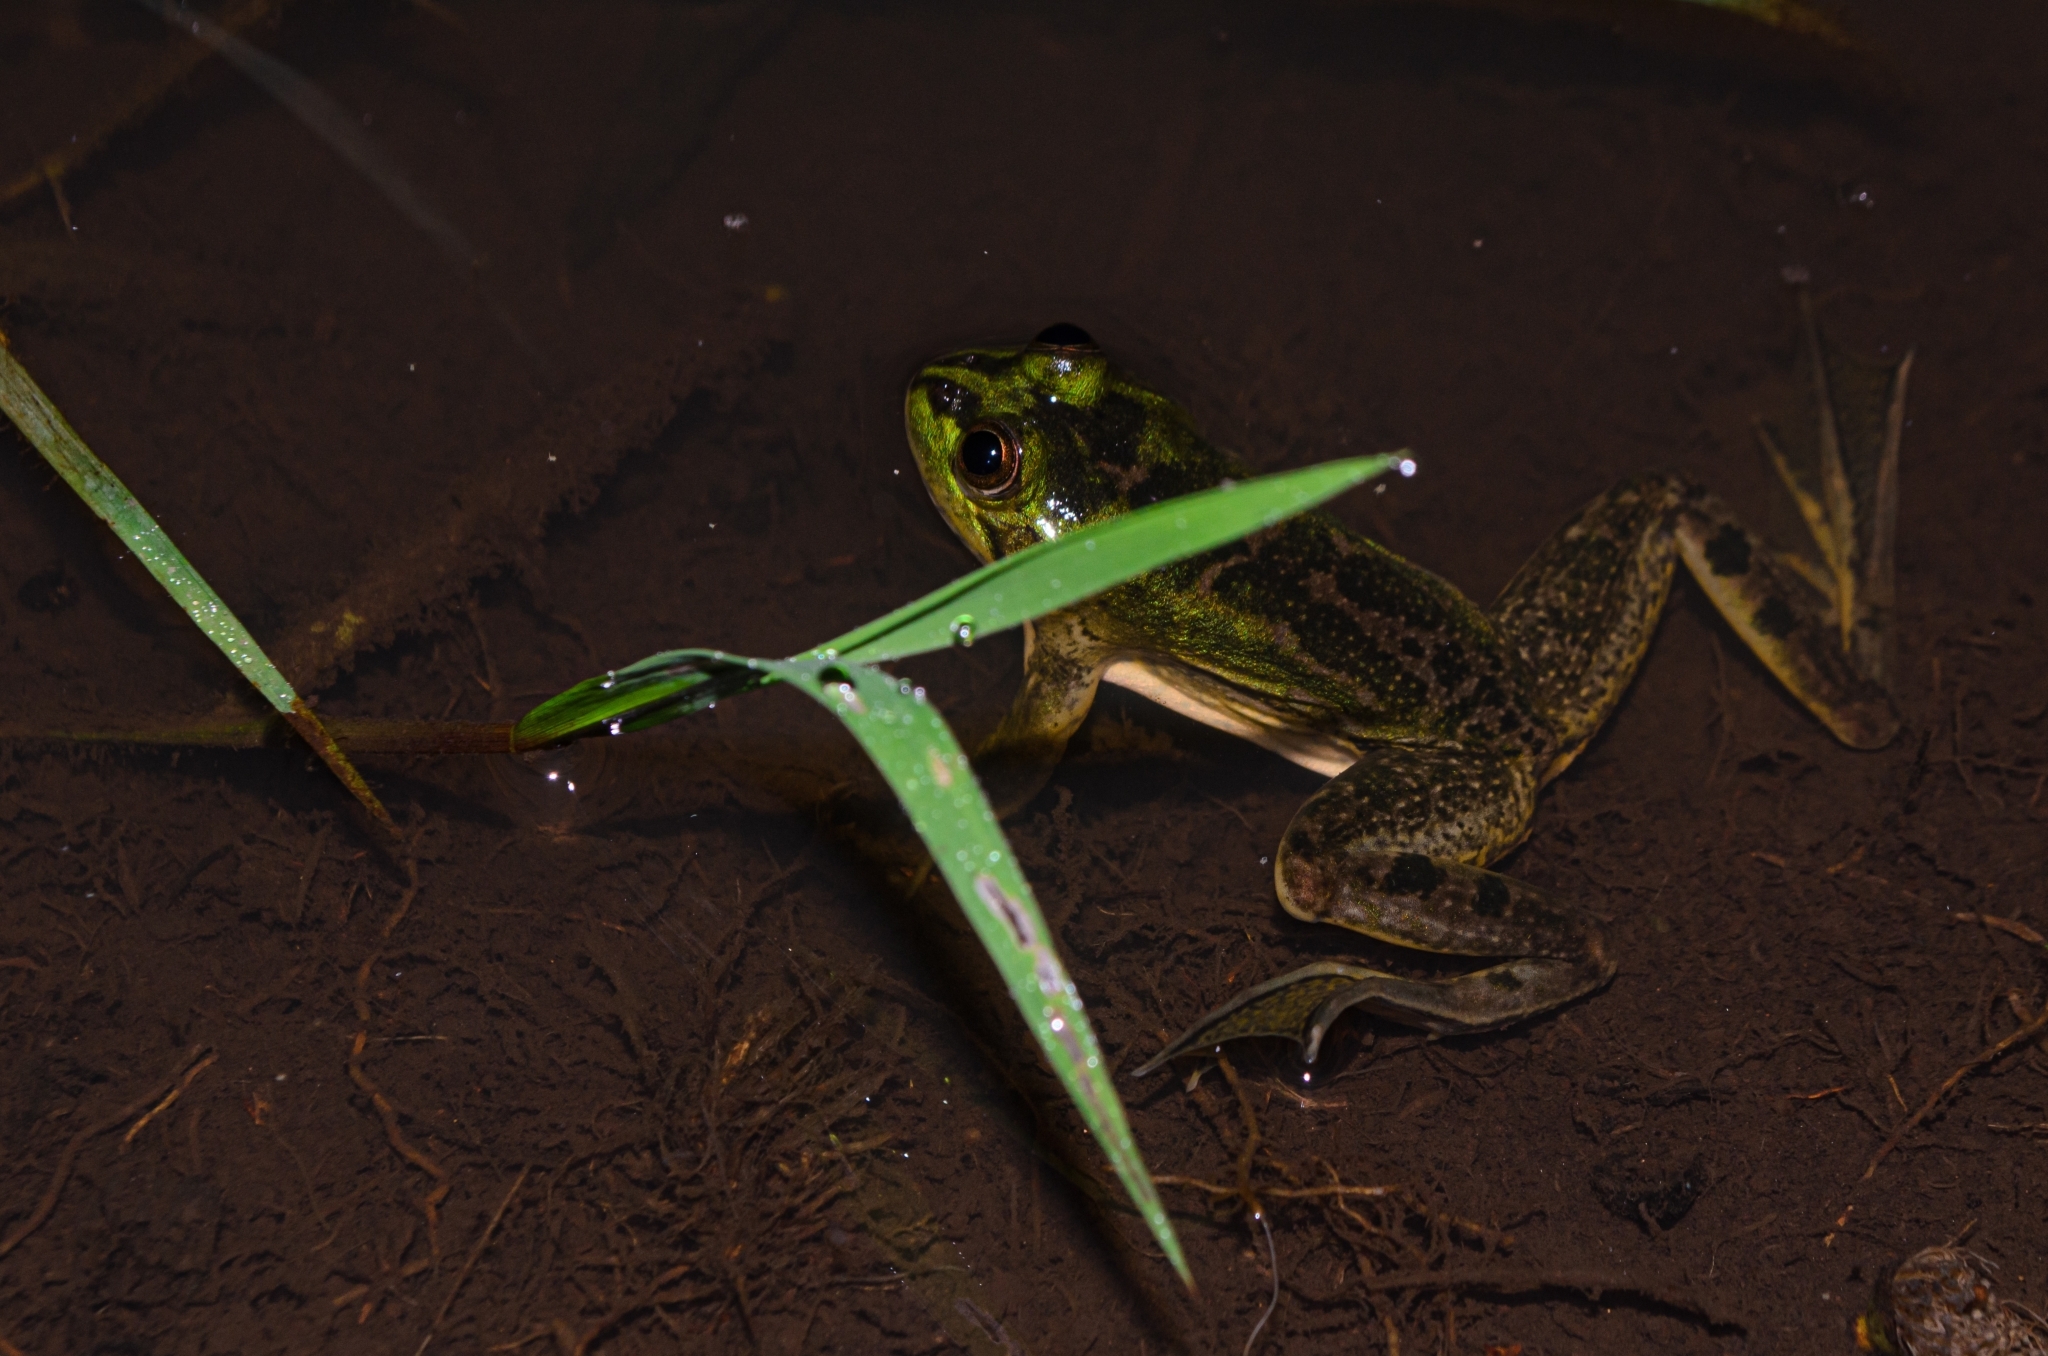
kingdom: Animalia
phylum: Chordata
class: Amphibia
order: Anura
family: Hylidae
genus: Pseudis
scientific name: Pseudis cardosoi
